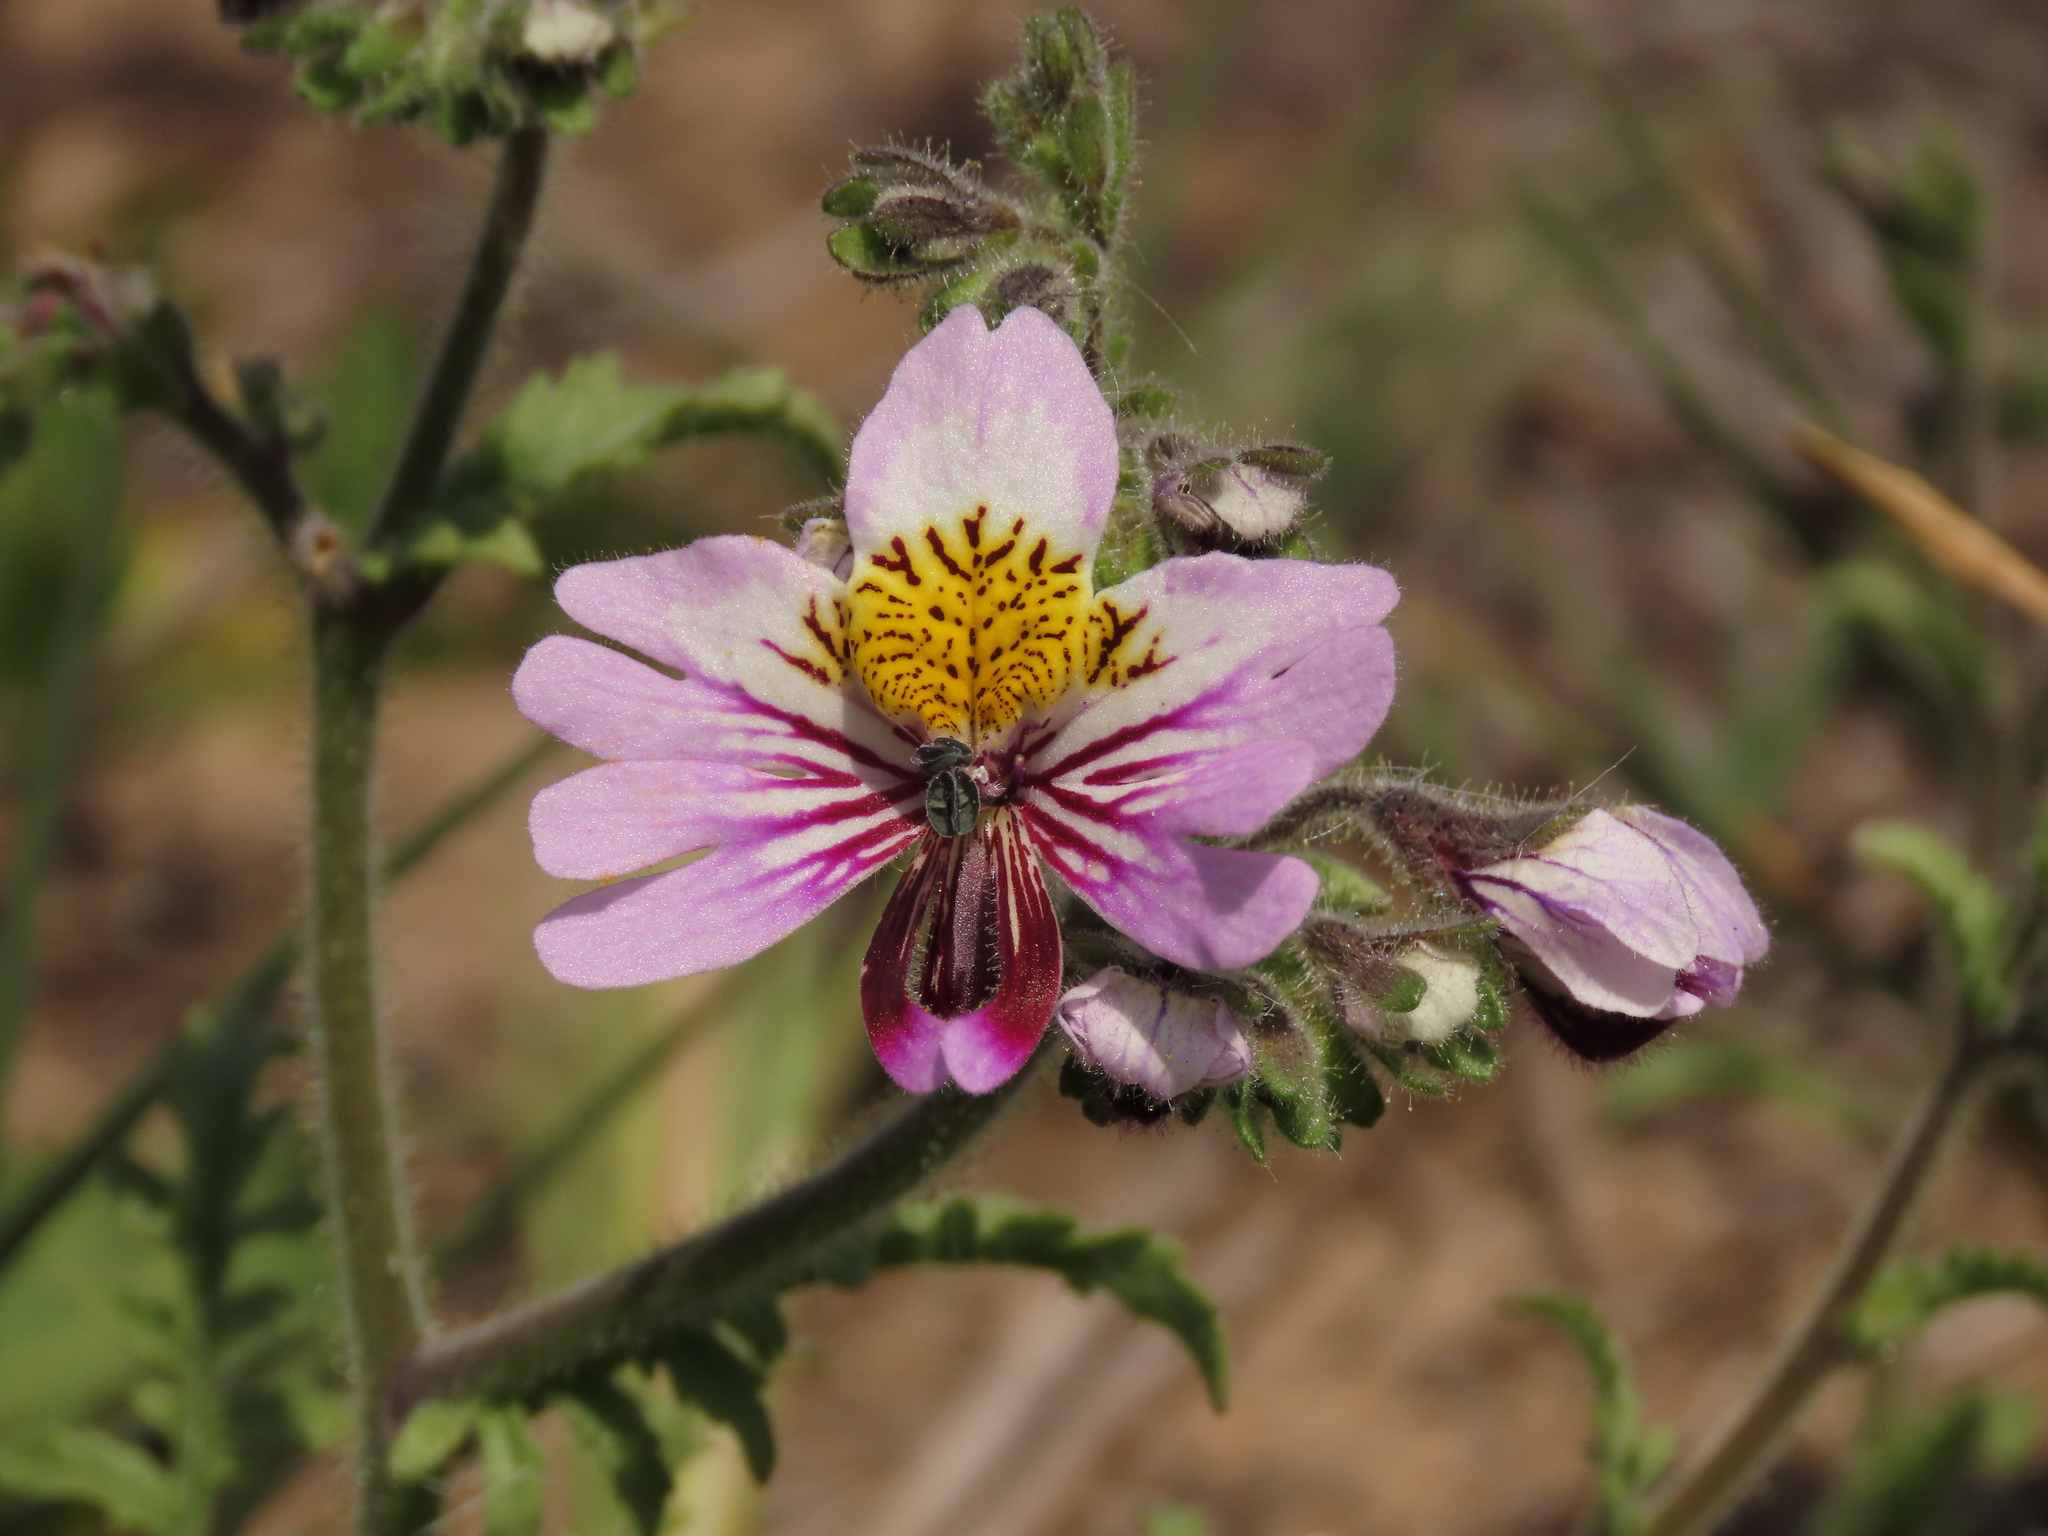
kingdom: Plantae
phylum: Tracheophyta
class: Magnoliopsida
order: Solanales
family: Solanaceae
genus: Schizanthus
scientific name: Schizanthus litoralis
